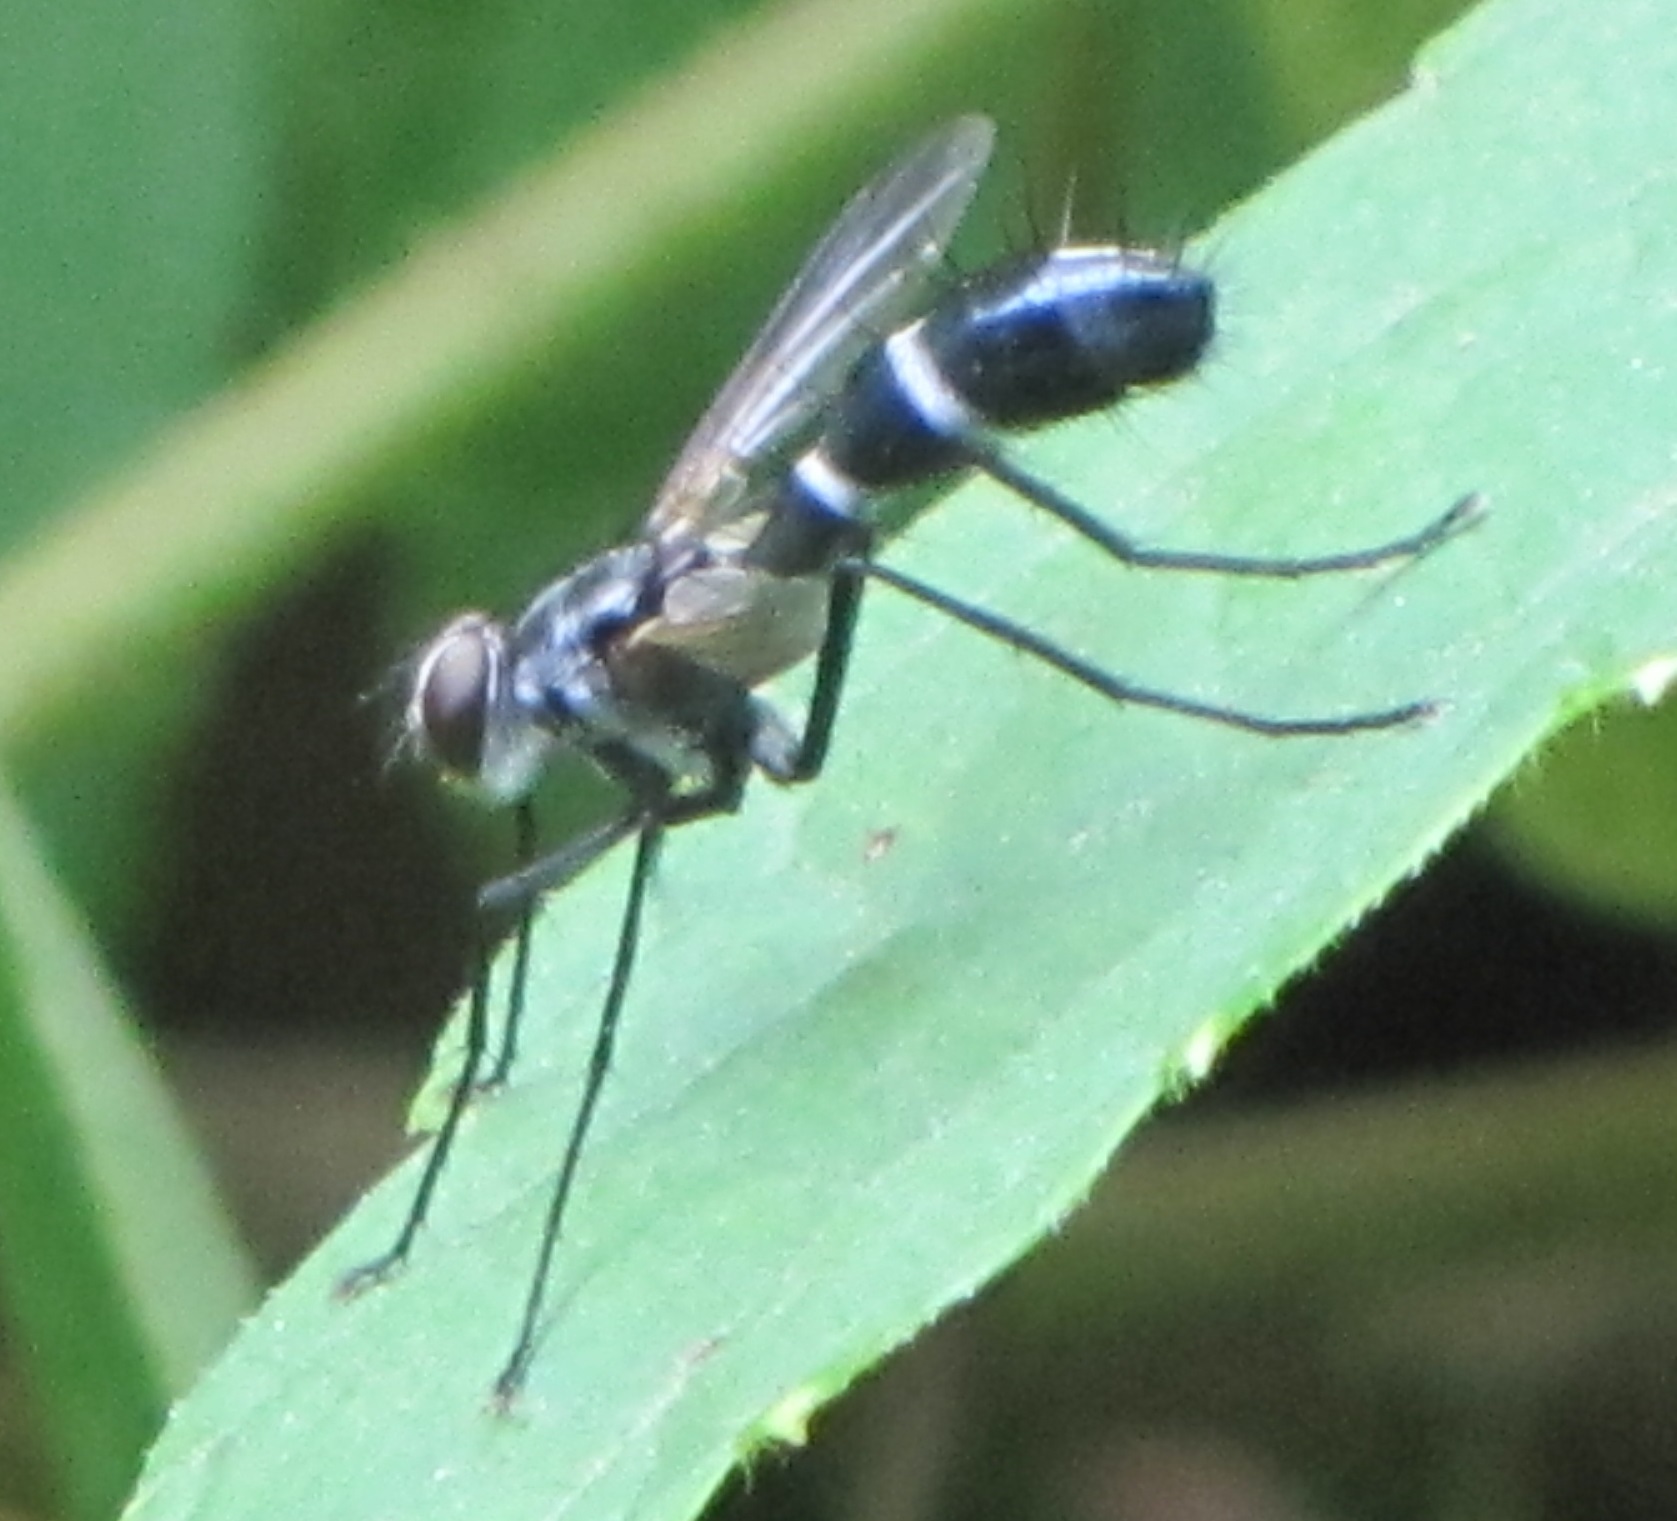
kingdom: Animalia
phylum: Arthropoda
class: Insecta
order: Diptera
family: Tachinidae
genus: Cordyligaster
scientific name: Cordyligaster septentrionalis
